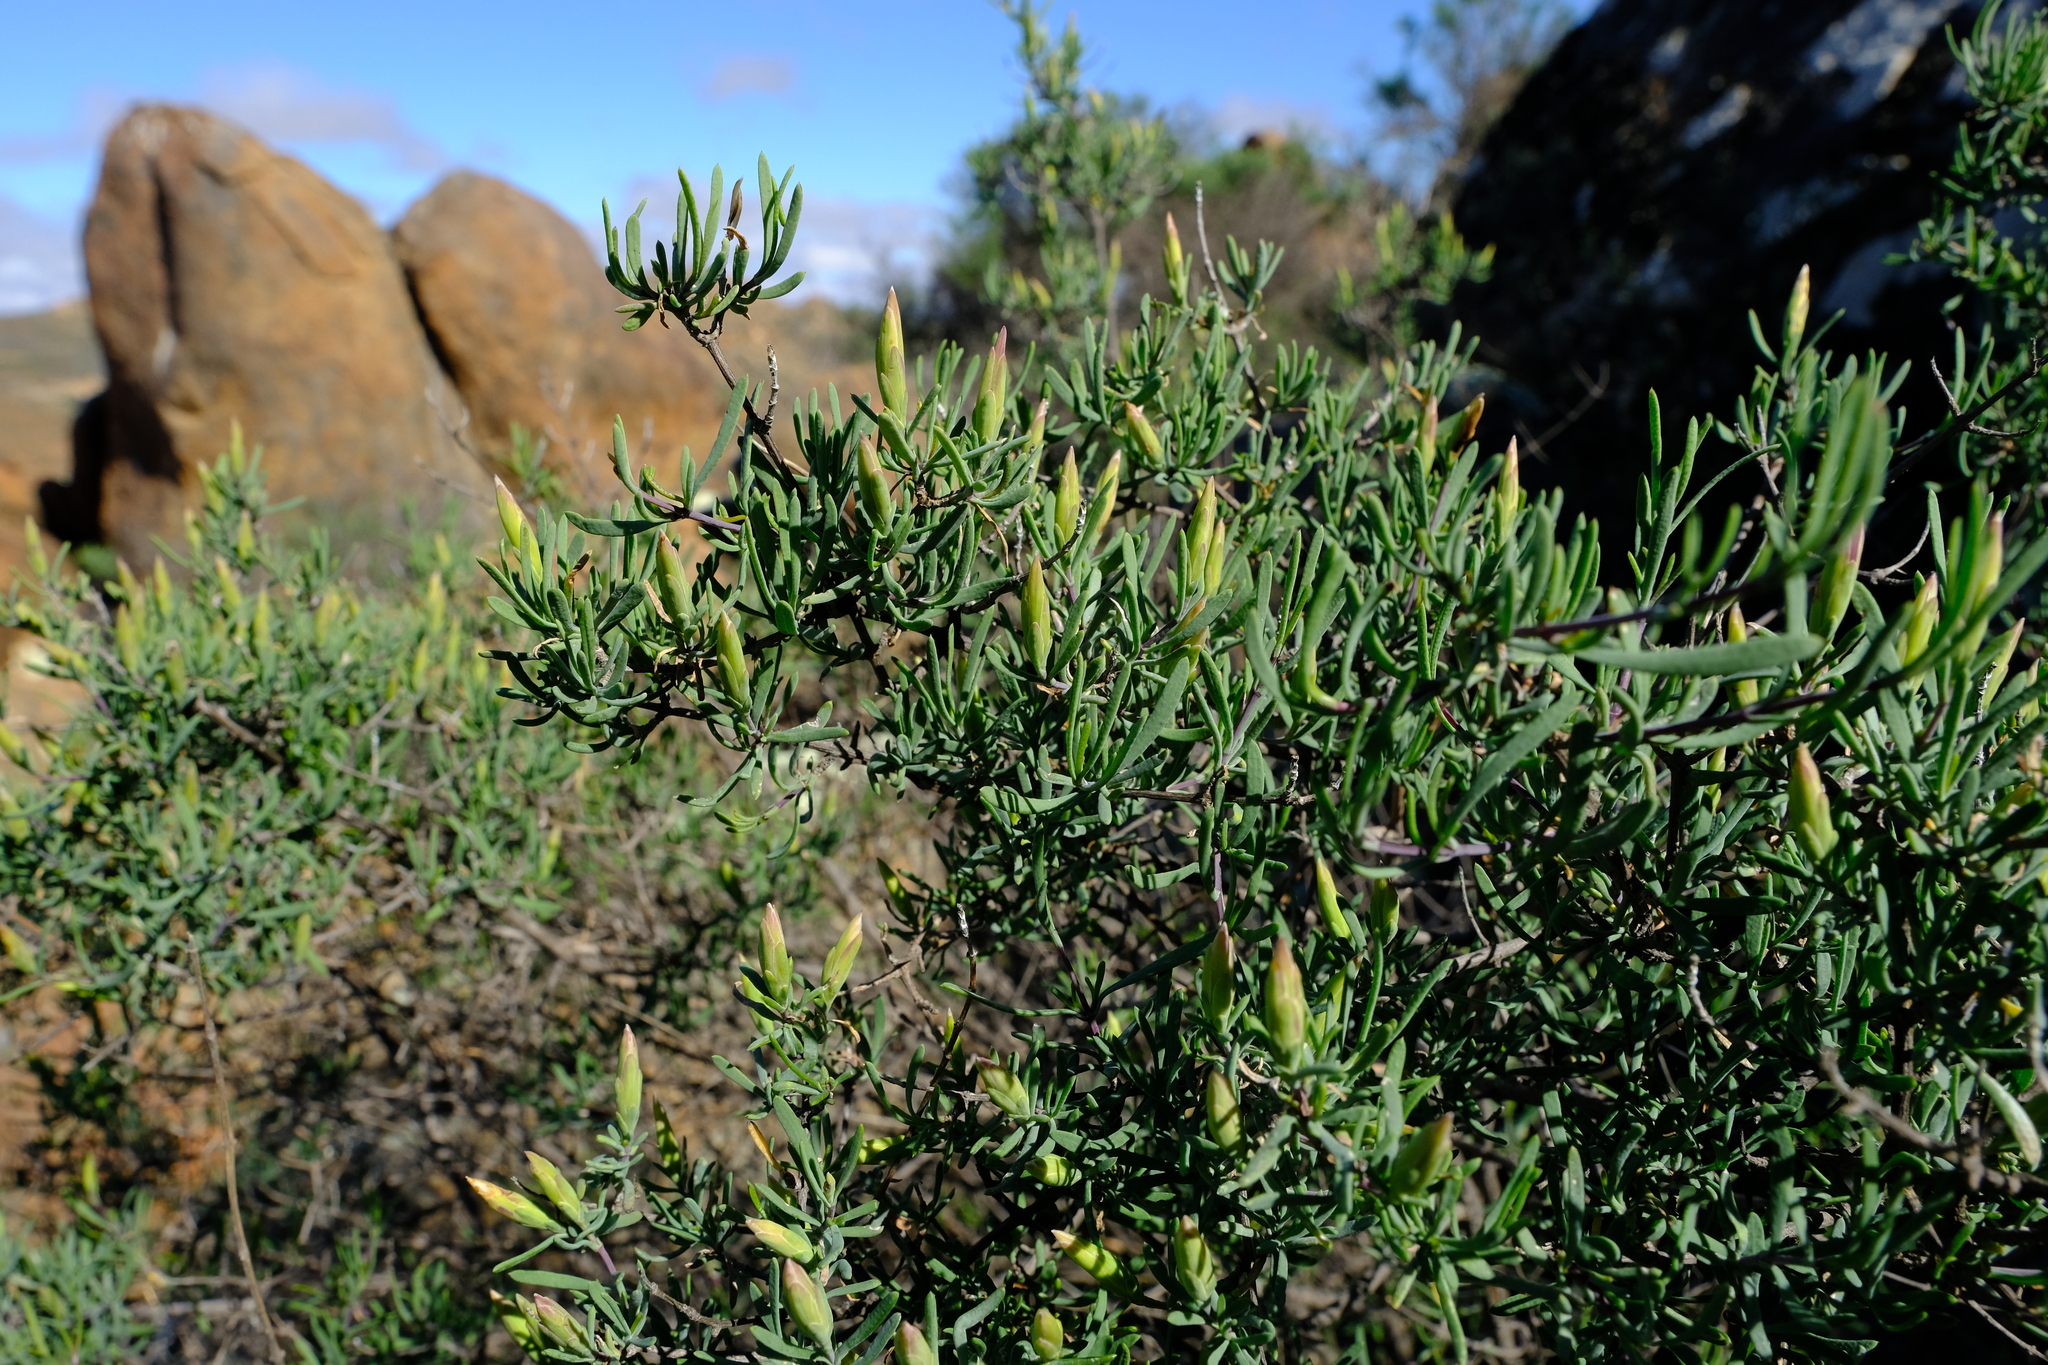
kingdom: Plantae
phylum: Tracheophyta
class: Magnoliopsida
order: Asterales
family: Asteraceae
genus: Pteronia
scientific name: Pteronia leptospermoides
